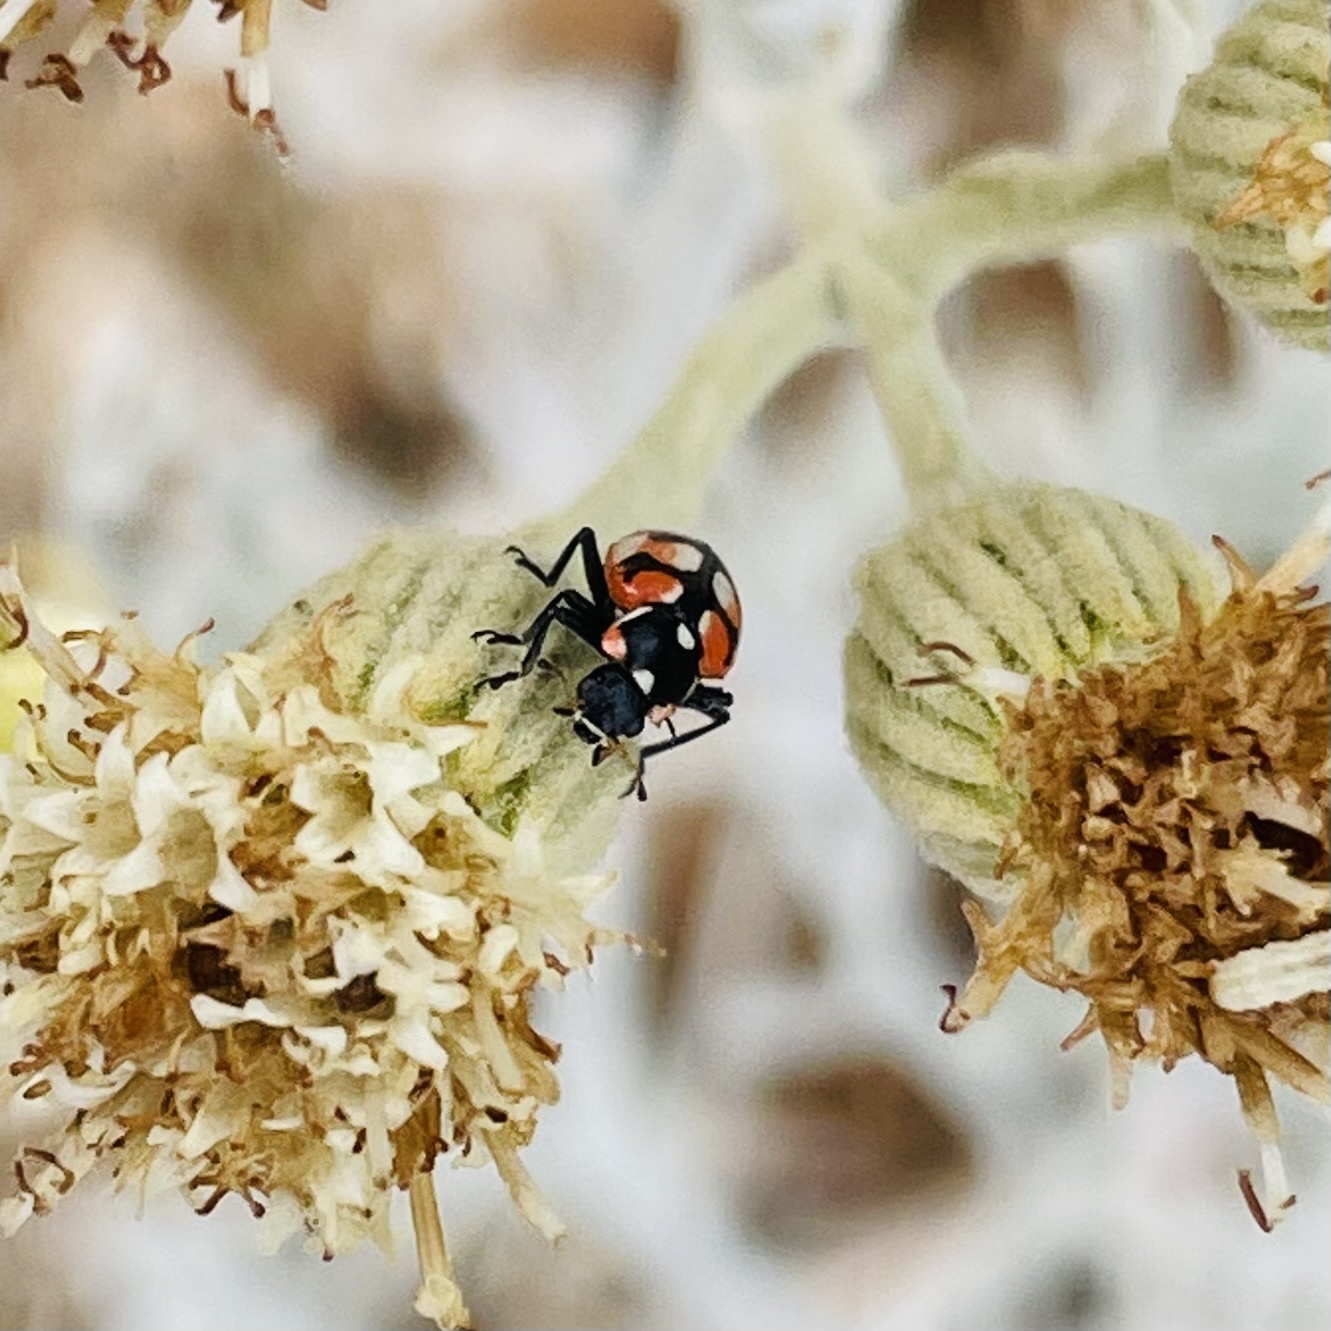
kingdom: Animalia
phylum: Arthropoda
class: Insecta
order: Coleoptera
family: Coccinellidae
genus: Eriopis
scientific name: Eriopis chilensis
